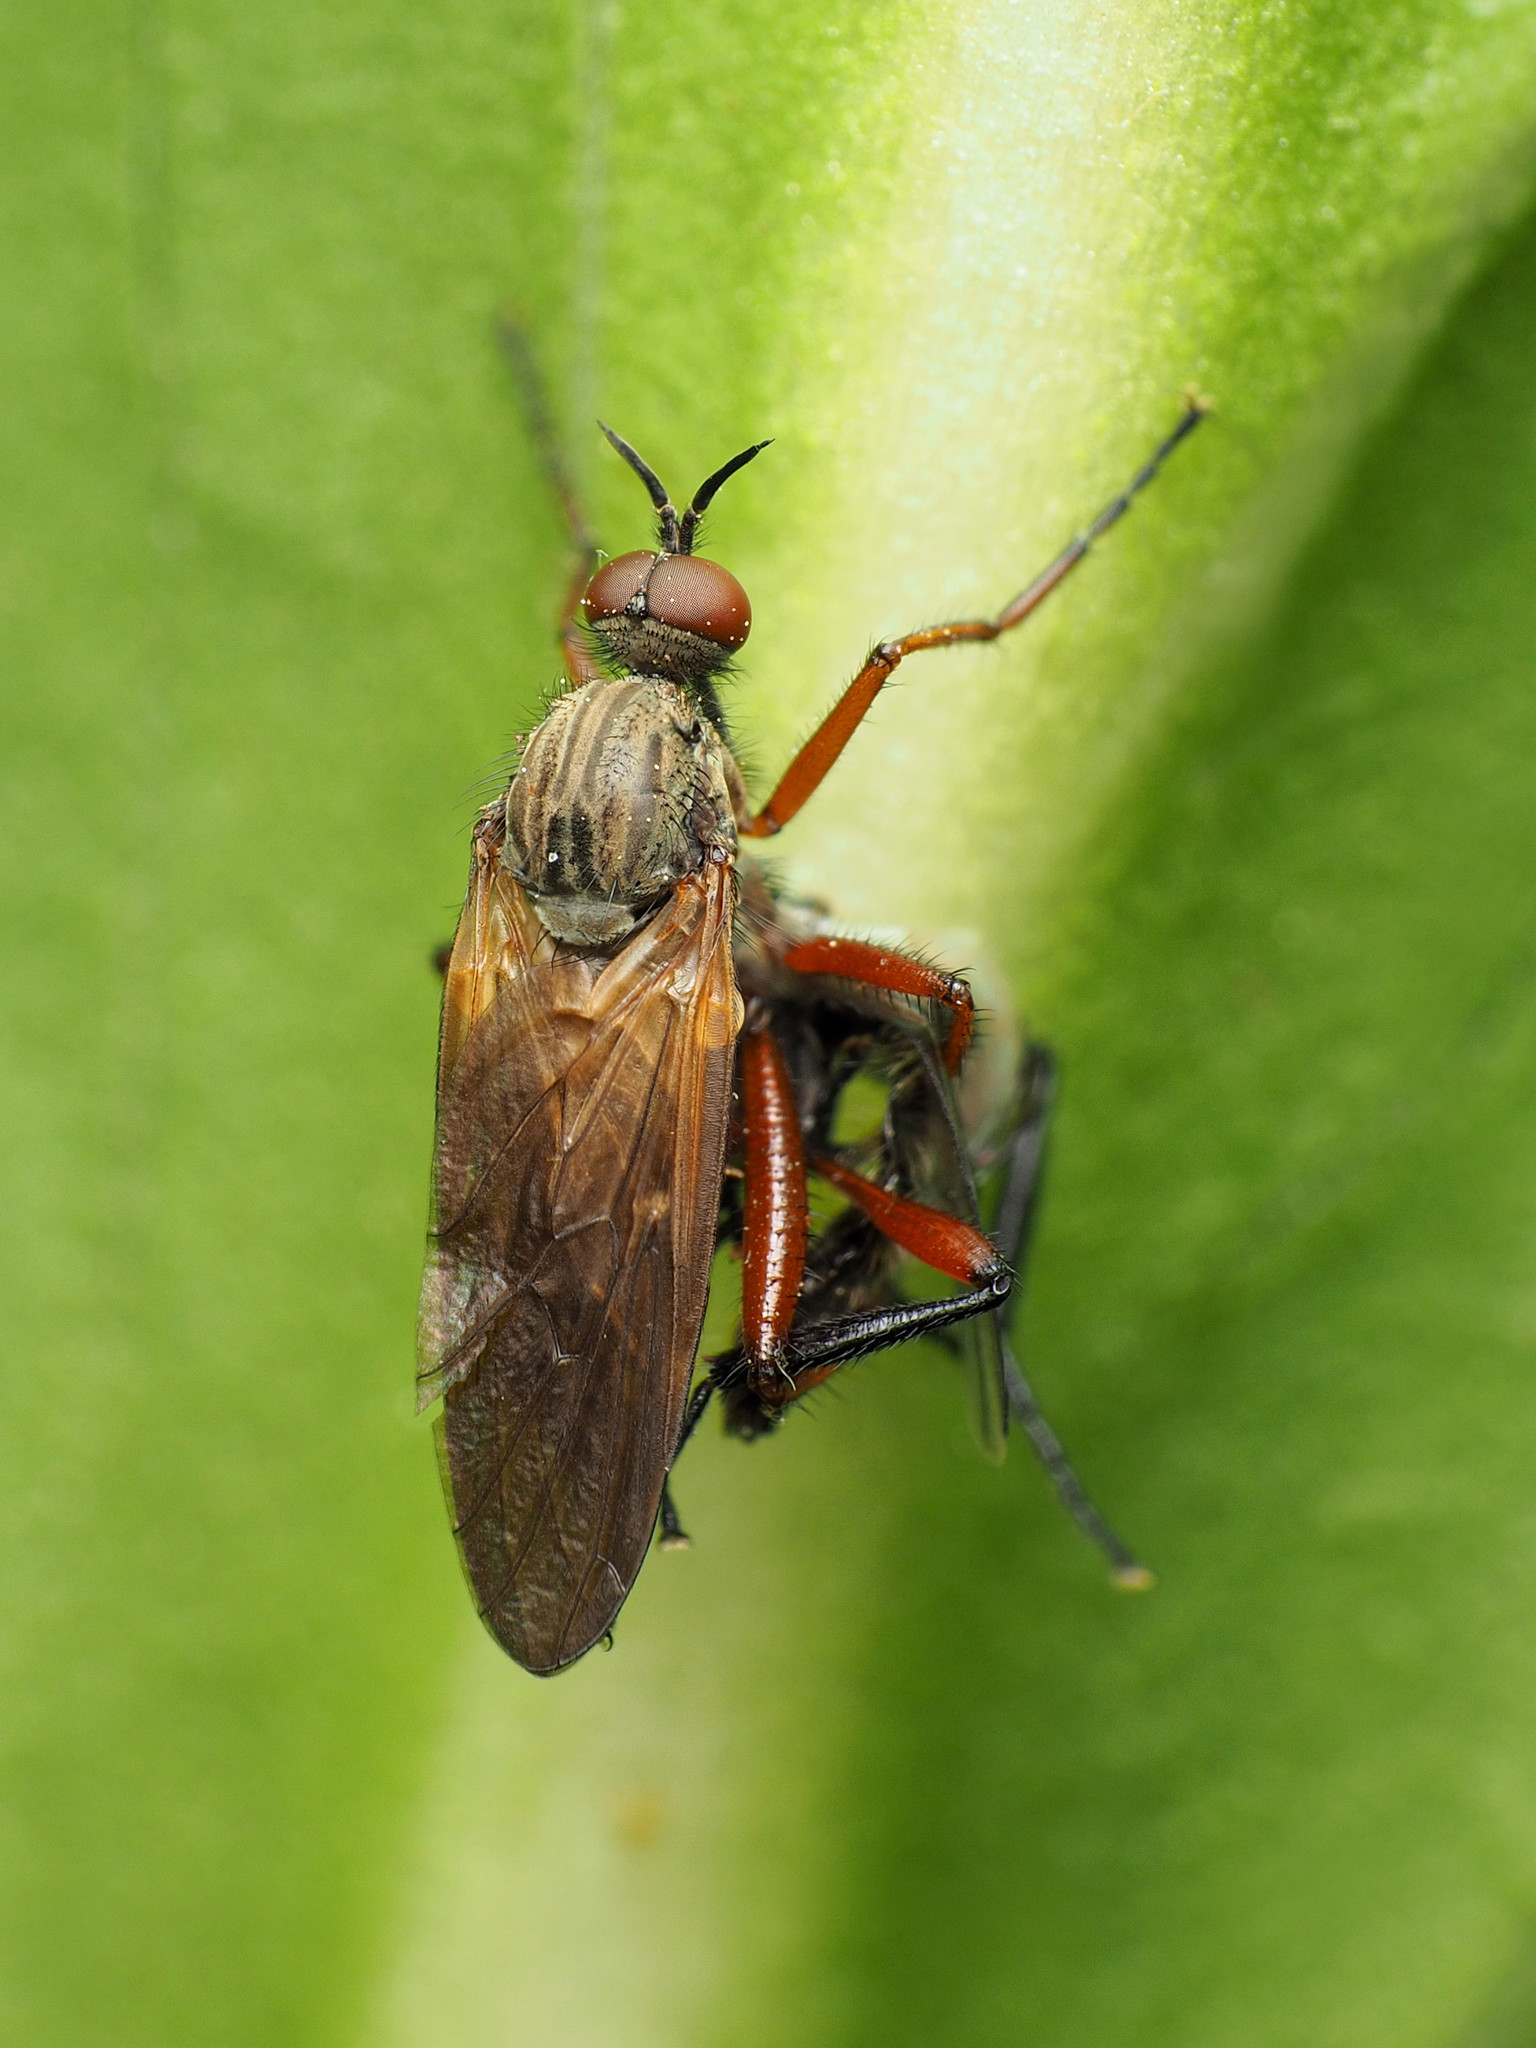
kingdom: Animalia
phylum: Arthropoda
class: Insecta
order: Diptera
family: Empididae
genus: Empis
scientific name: Empis spectabilis
